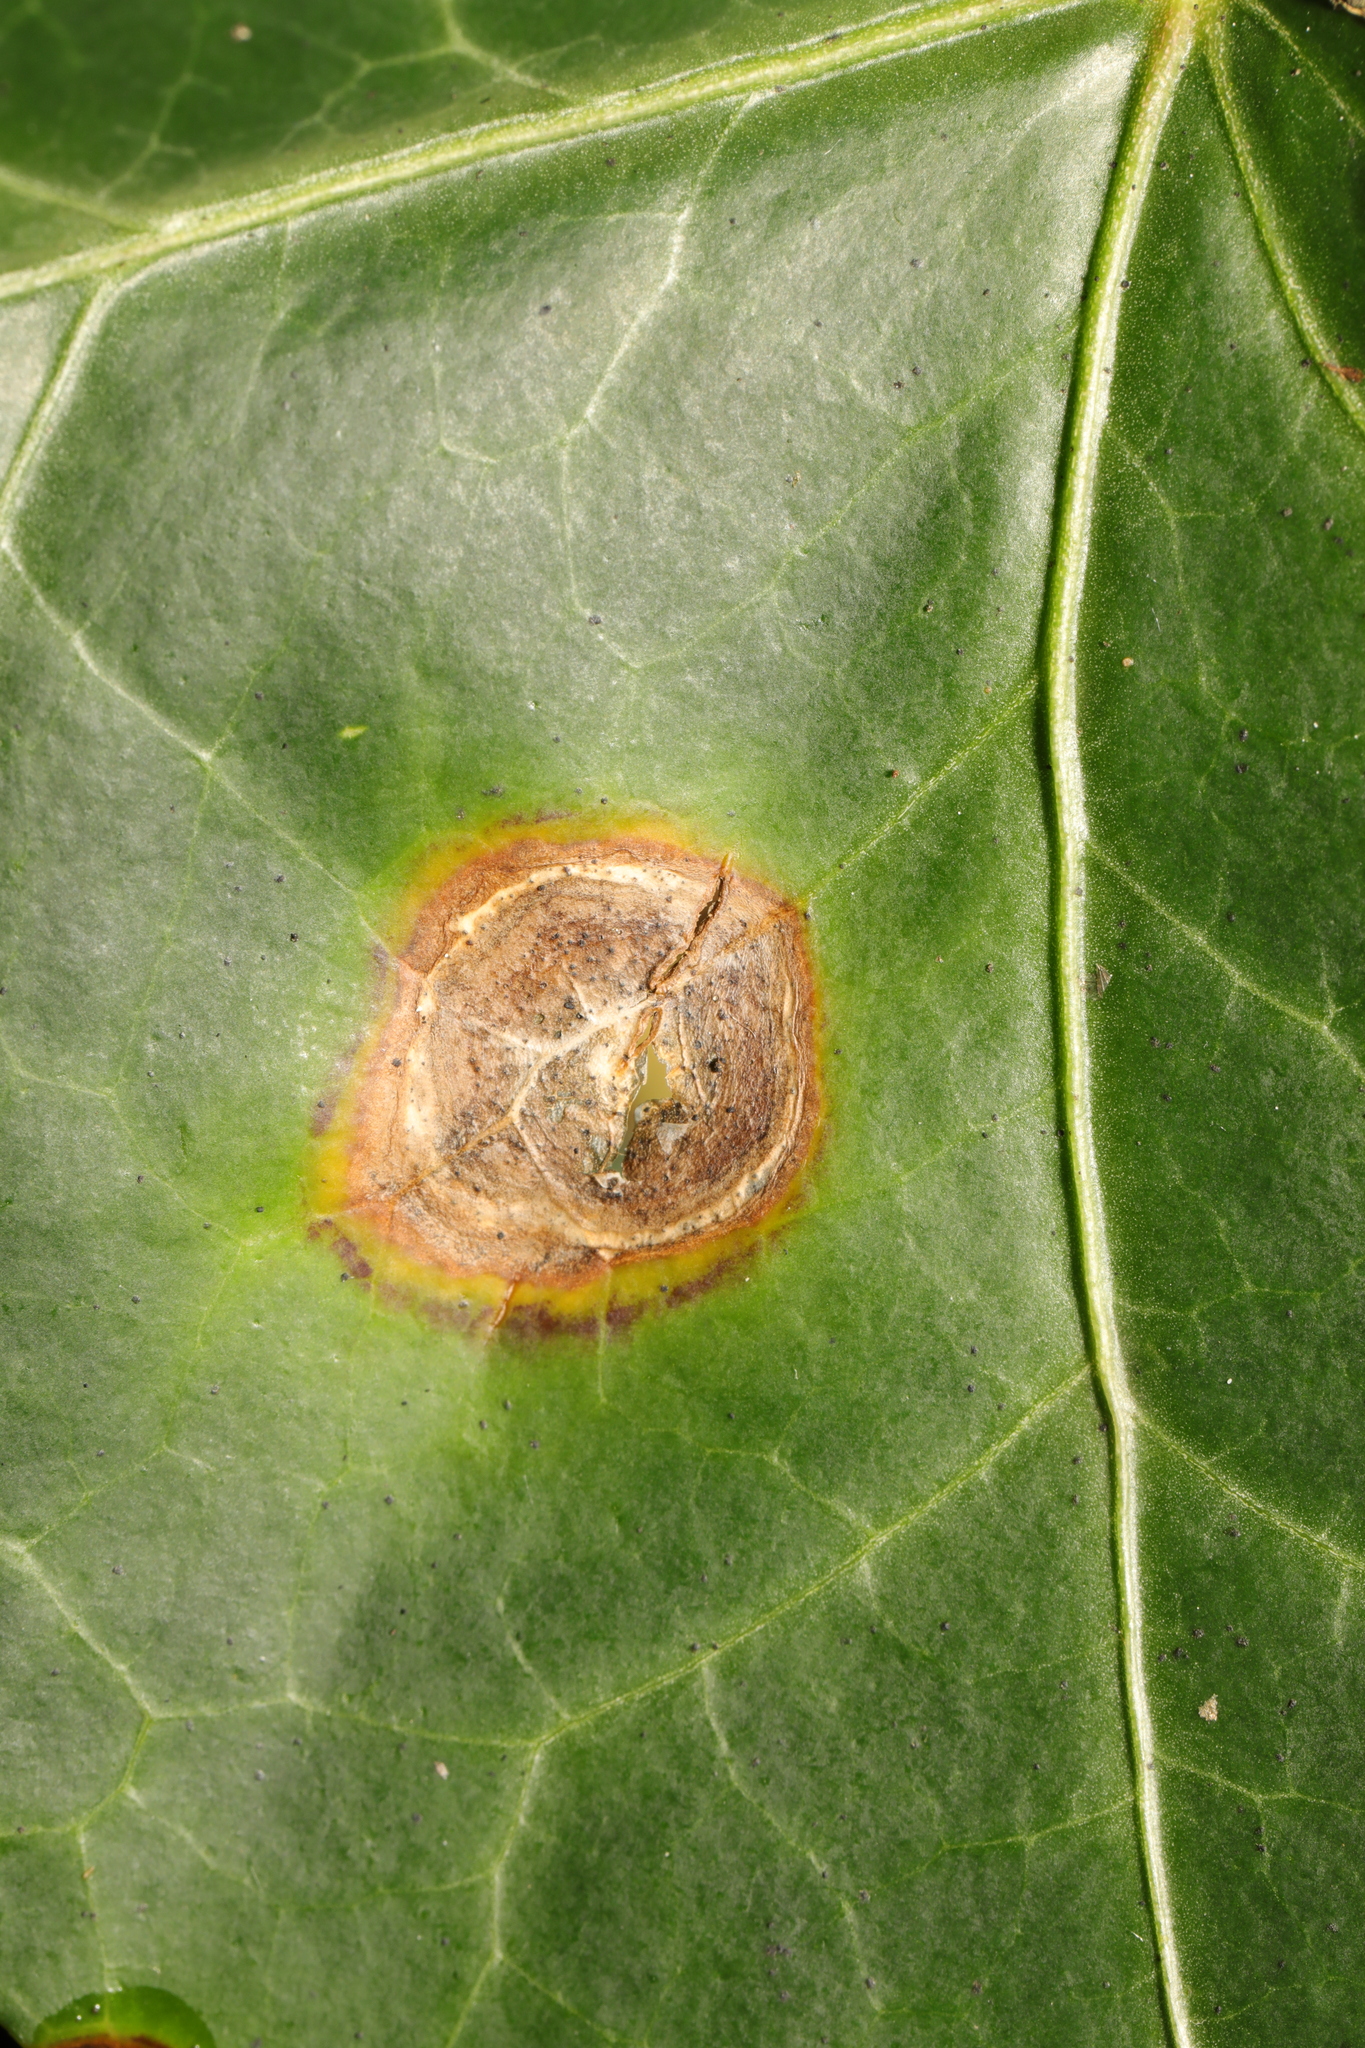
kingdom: Fungi
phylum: Ascomycota
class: Dothideomycetes
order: Pleosporales
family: Didymellaceae
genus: Boeremia
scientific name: Boeremia hedericola
